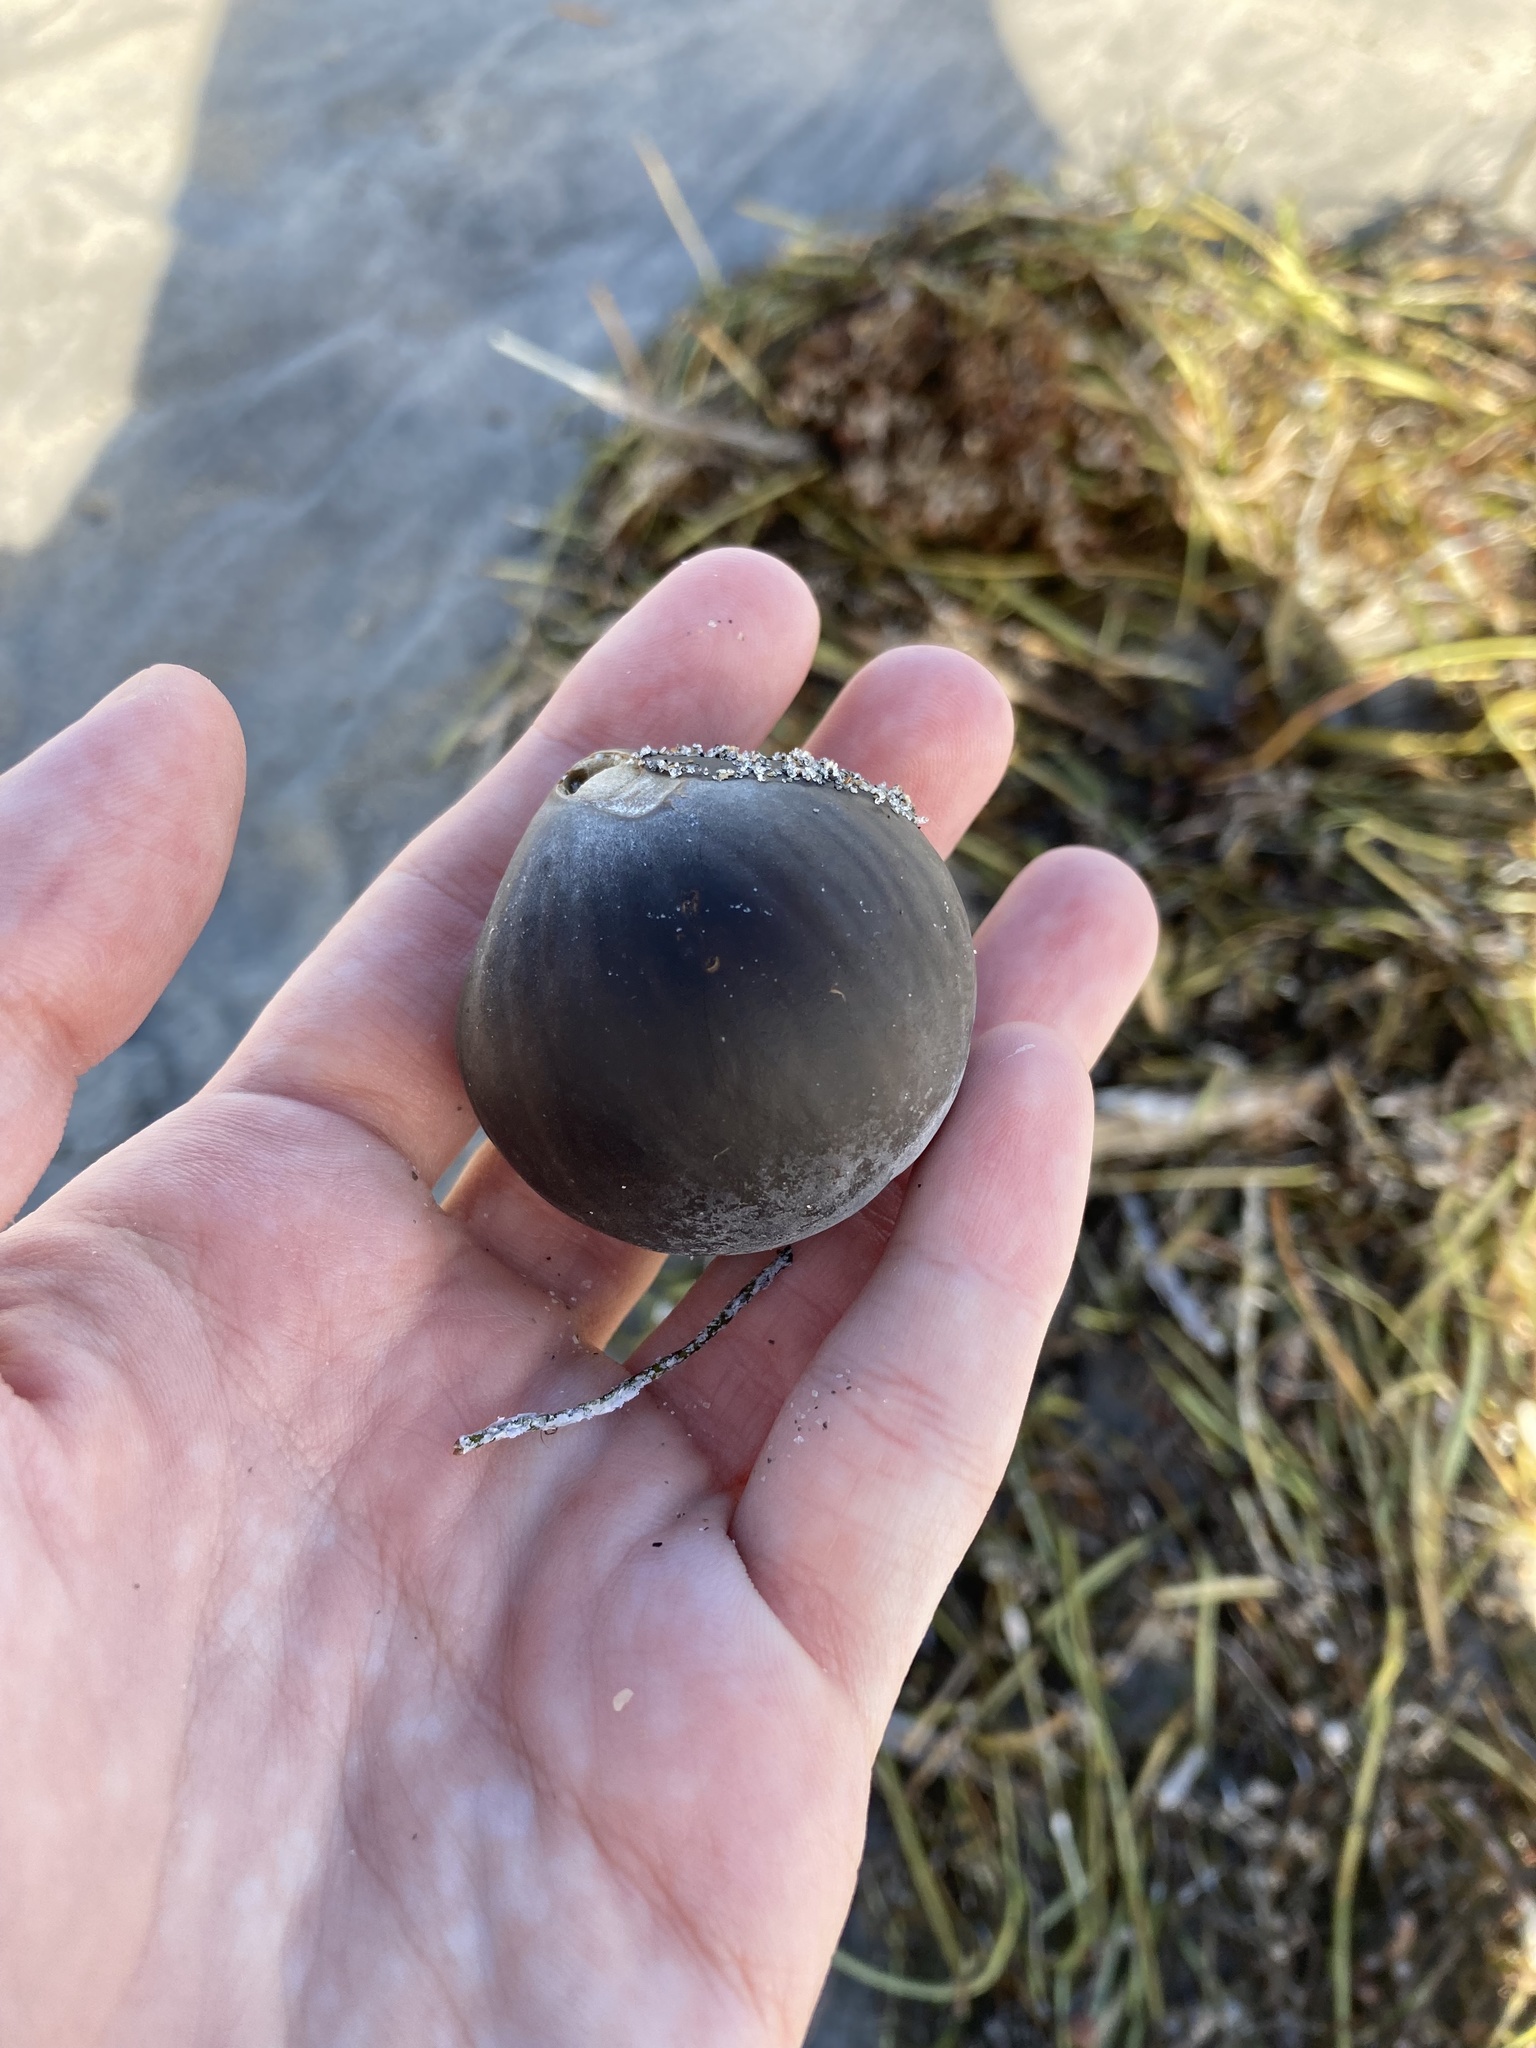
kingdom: Plantae
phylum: Tracheophyta
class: Liliopsida
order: Arecales
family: Arecaceae
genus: Manicaria
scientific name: Manicaria saccifera
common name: Sea coconut
